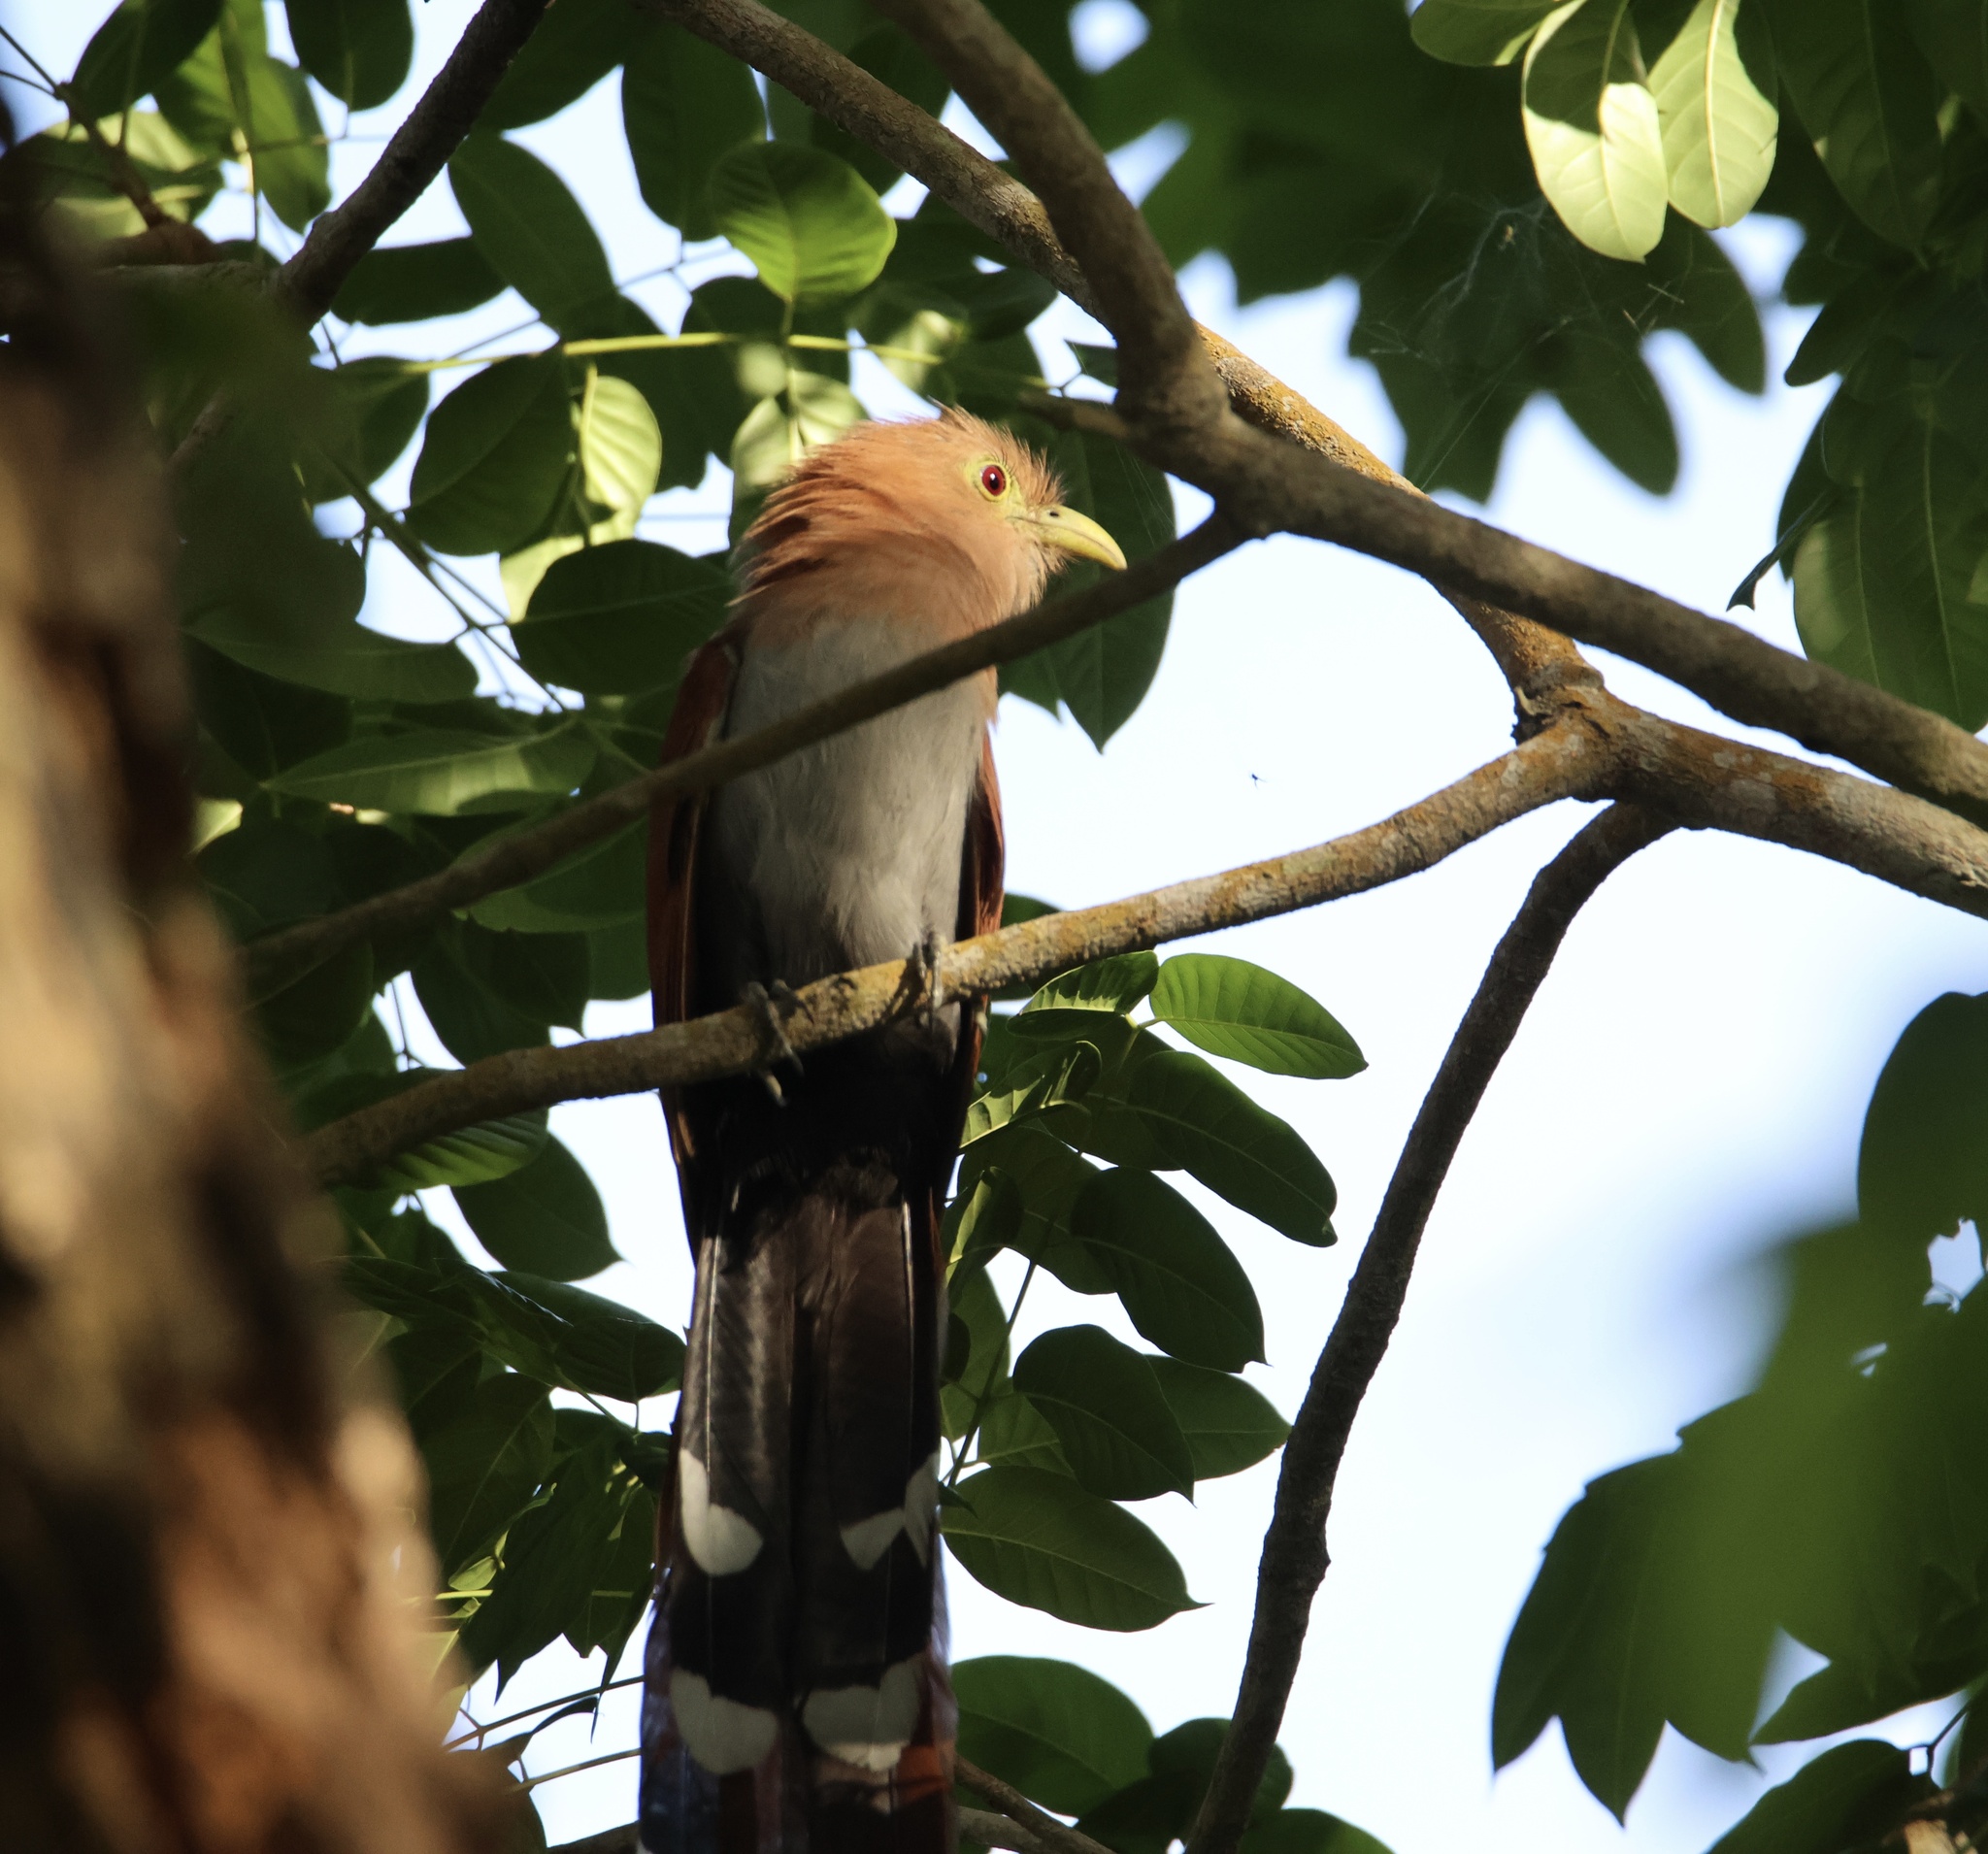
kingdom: Animalia
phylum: Chordata
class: Aves
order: Cuculiformes
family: Cuculidae
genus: Piaya
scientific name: Piaya cayana
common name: Squirrel cuckoo
